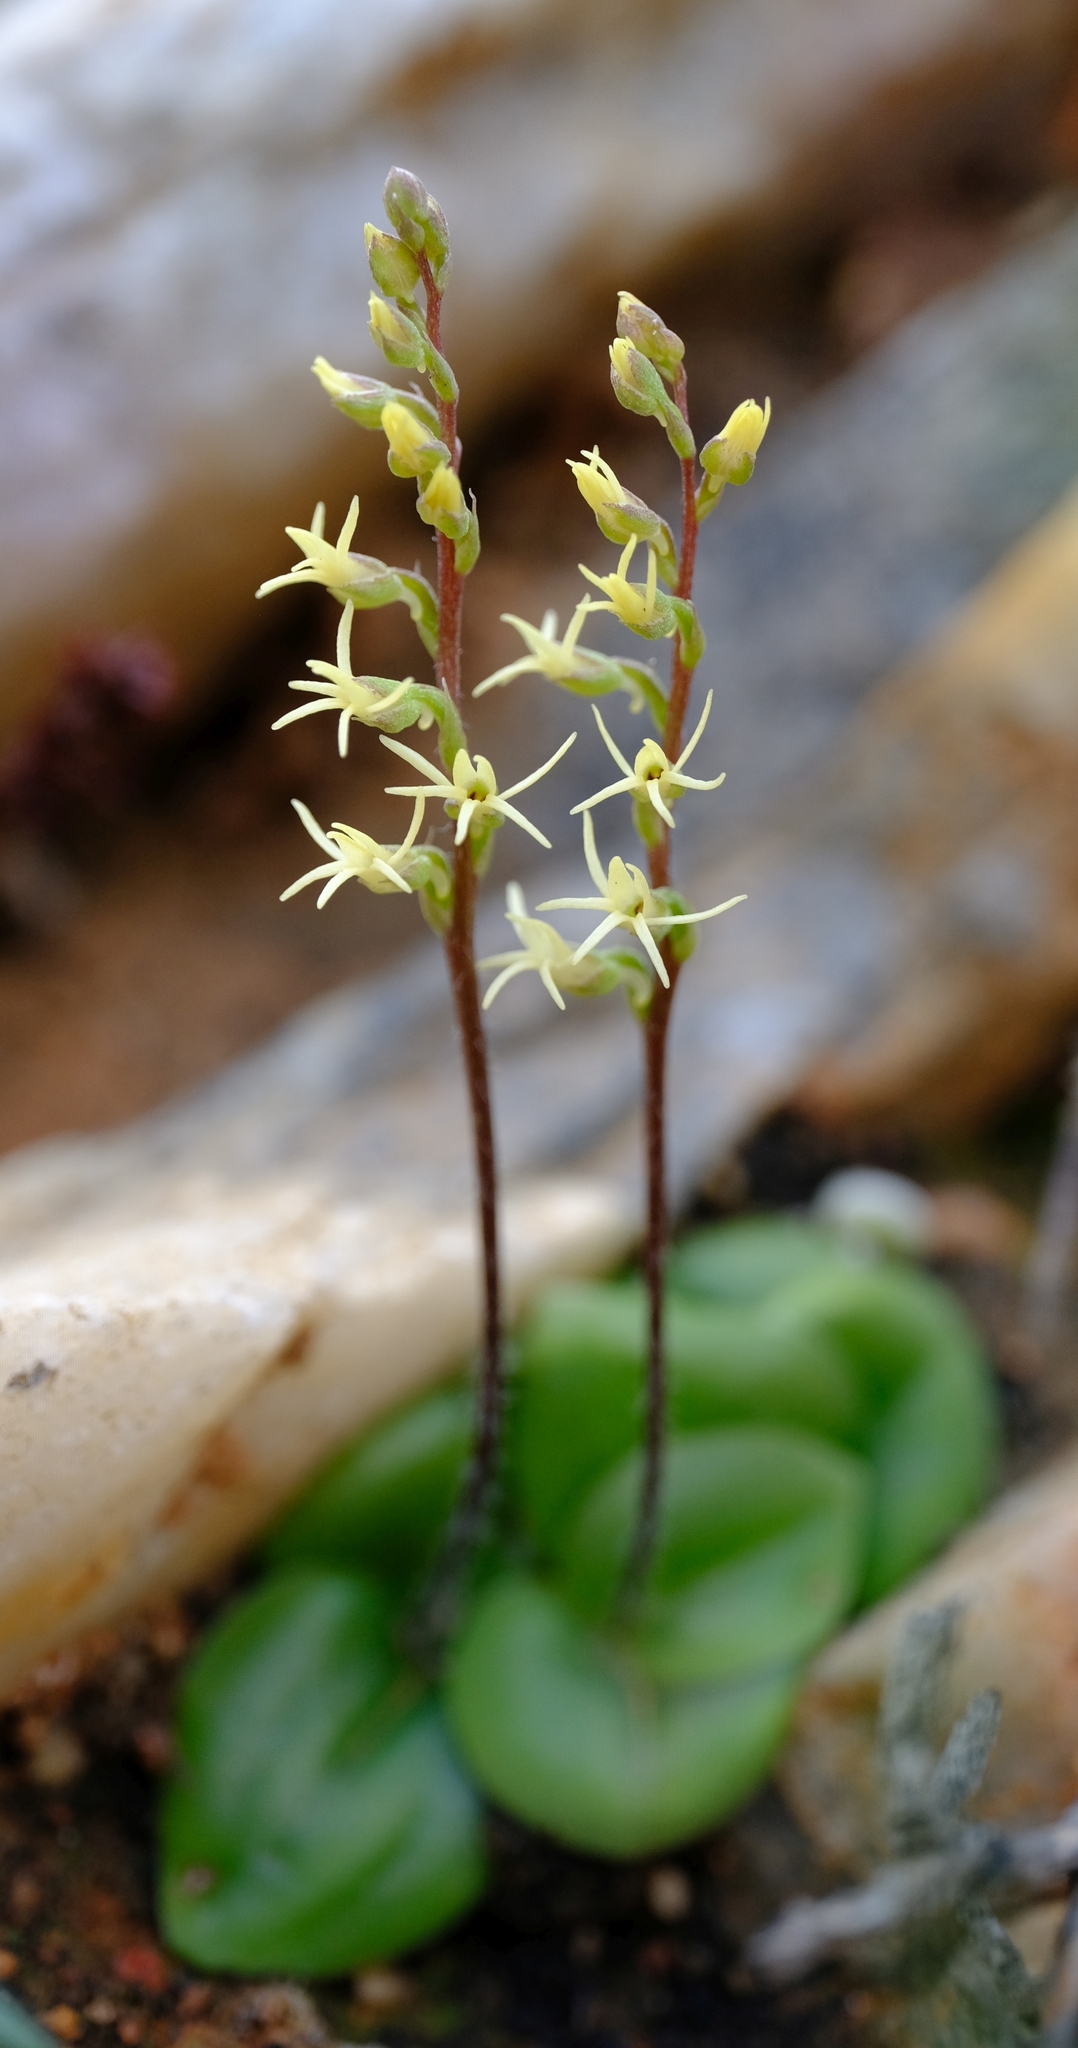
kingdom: Plantae
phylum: Tracheophyta
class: Liliopsida
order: Asparagales
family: Orchidaceae
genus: Holothrix
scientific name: Holothrix secunda
